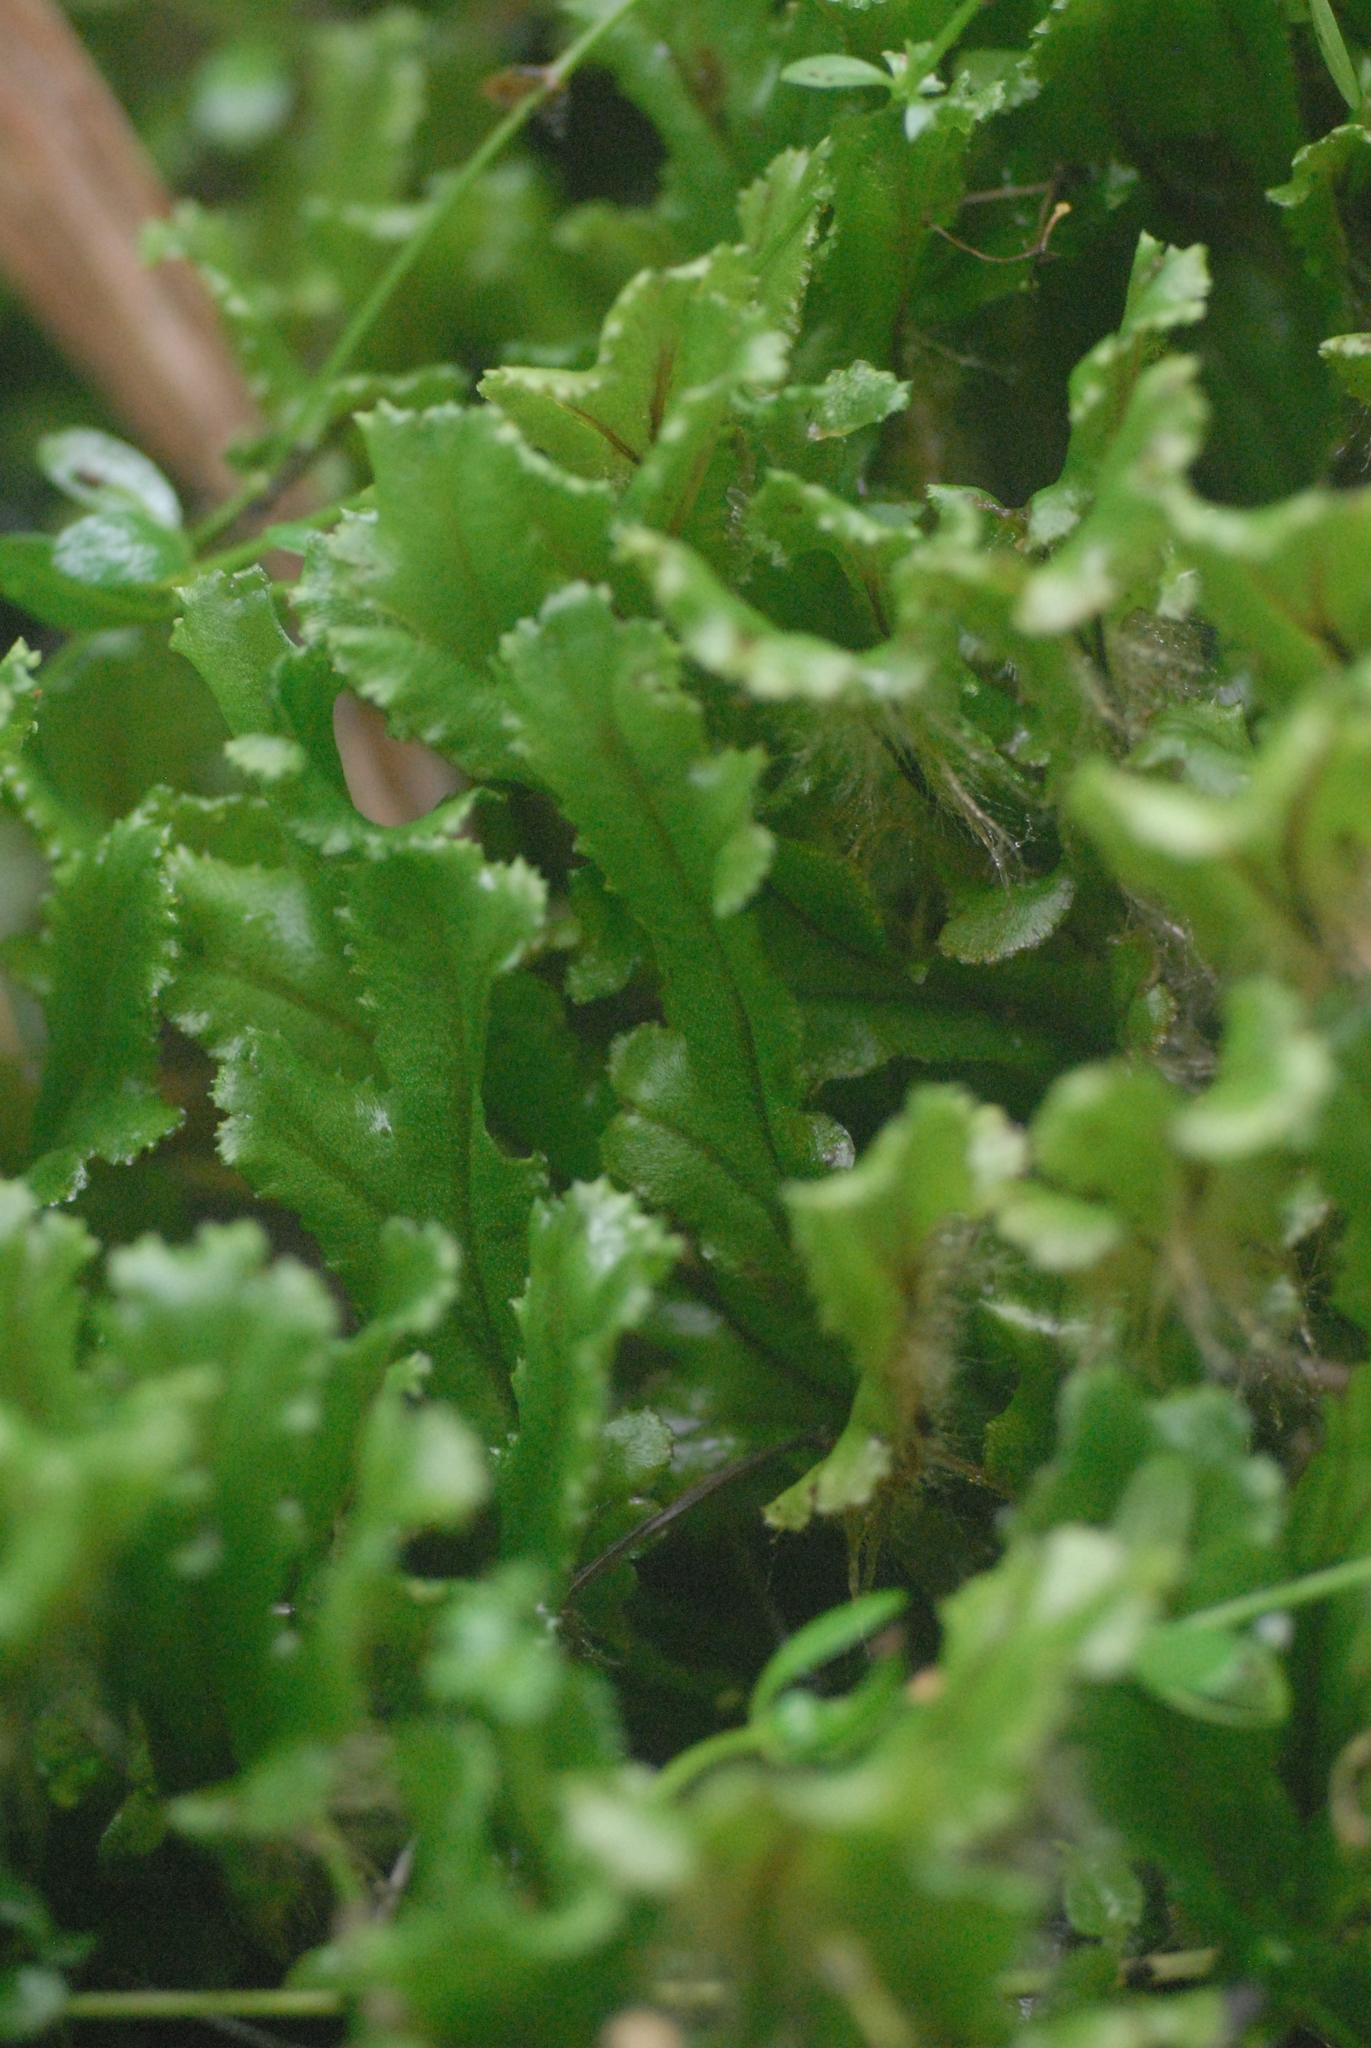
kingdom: Plantae
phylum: Marchantiophyta
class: Marchantiopsida
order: Marchantiales
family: Marchantiaceae
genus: Marchantia
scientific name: Marchantia polymorpha
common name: Common liverwort
